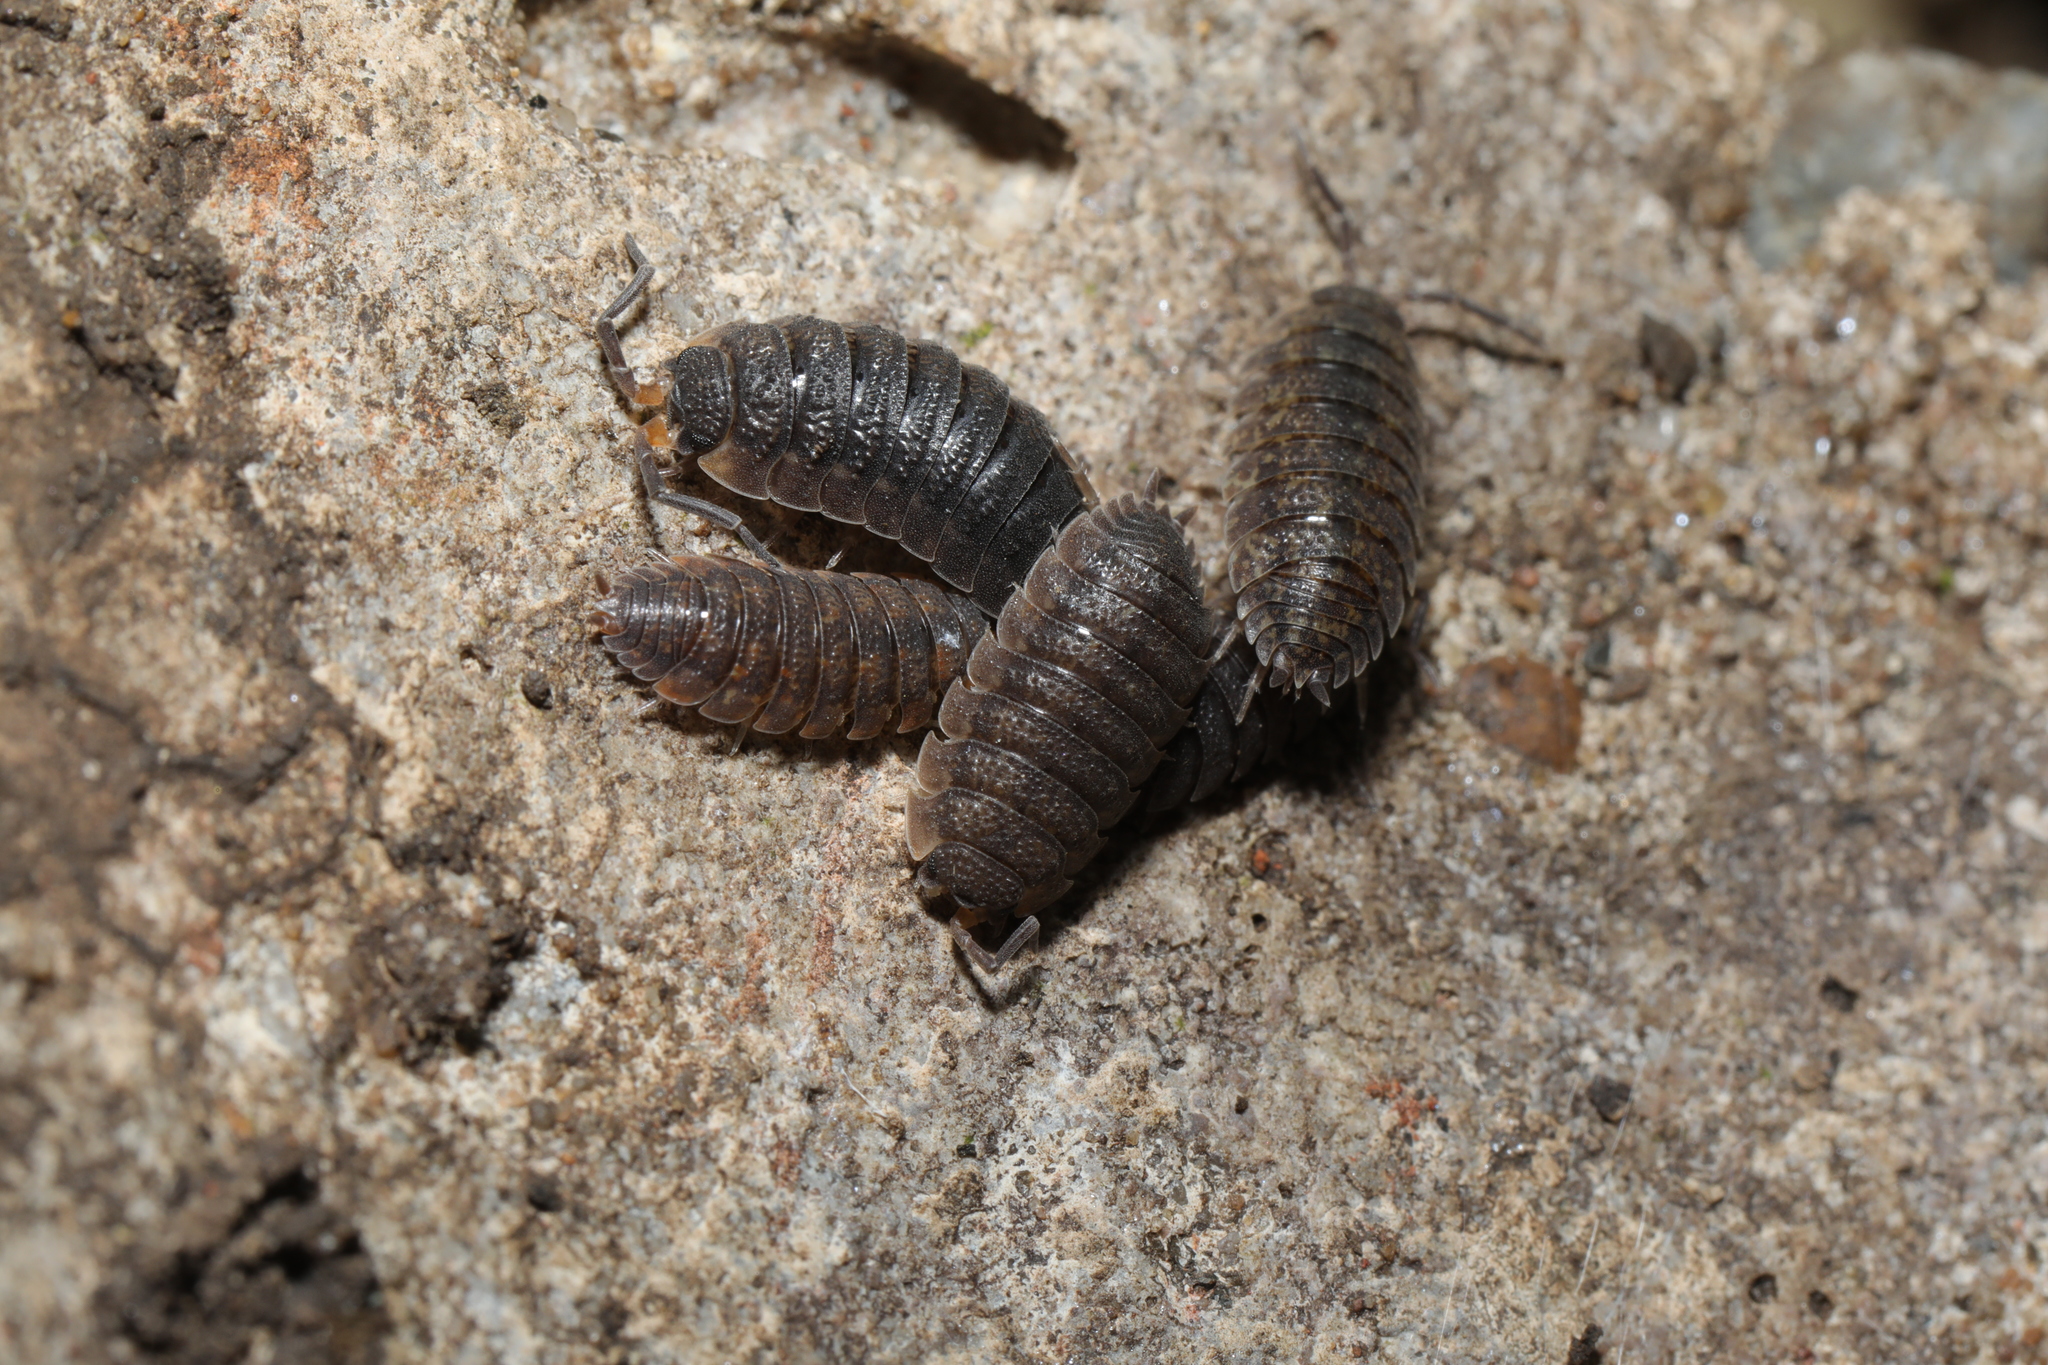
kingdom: Animalia
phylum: Arthropoda
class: Malacostraca
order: Isopoda
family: Porcellionidae
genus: Porcellio
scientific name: Porcellio scaber
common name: Common rough woodlouse
